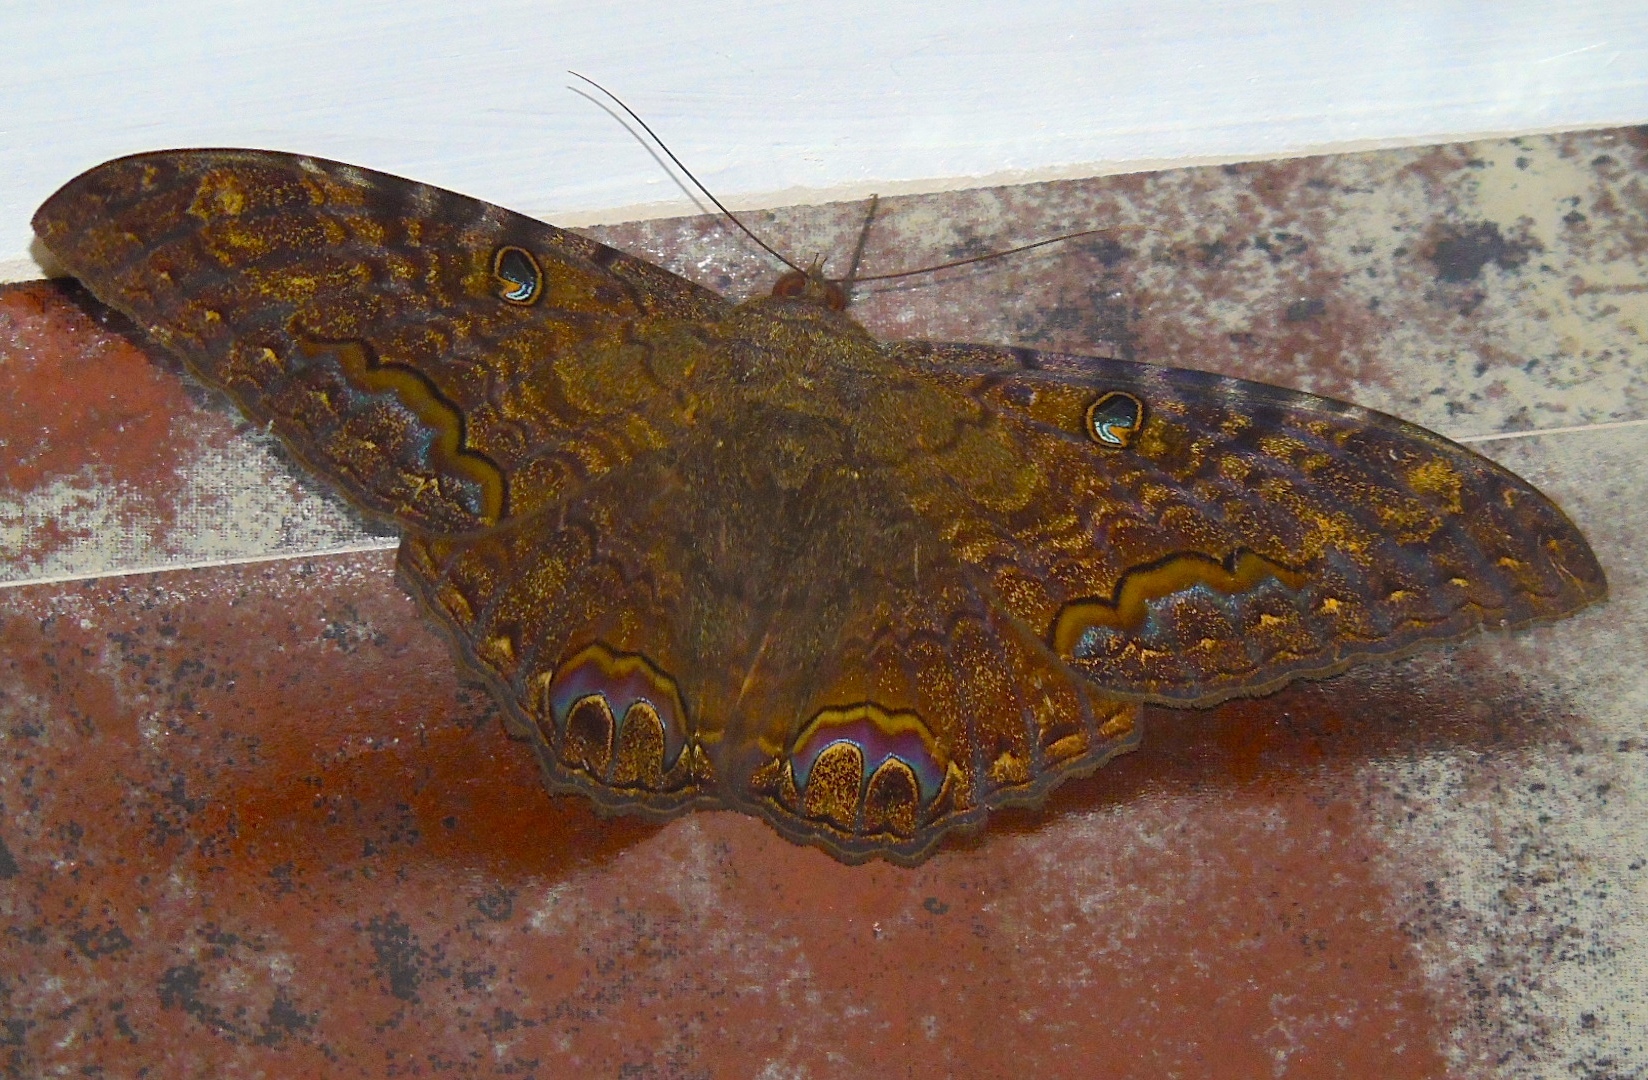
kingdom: Animalia
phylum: Arthropoda
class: Insecta
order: Lepidoptera
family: Erebidae
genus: Ascalapha
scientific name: Ascalapha odorata
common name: Black witch
